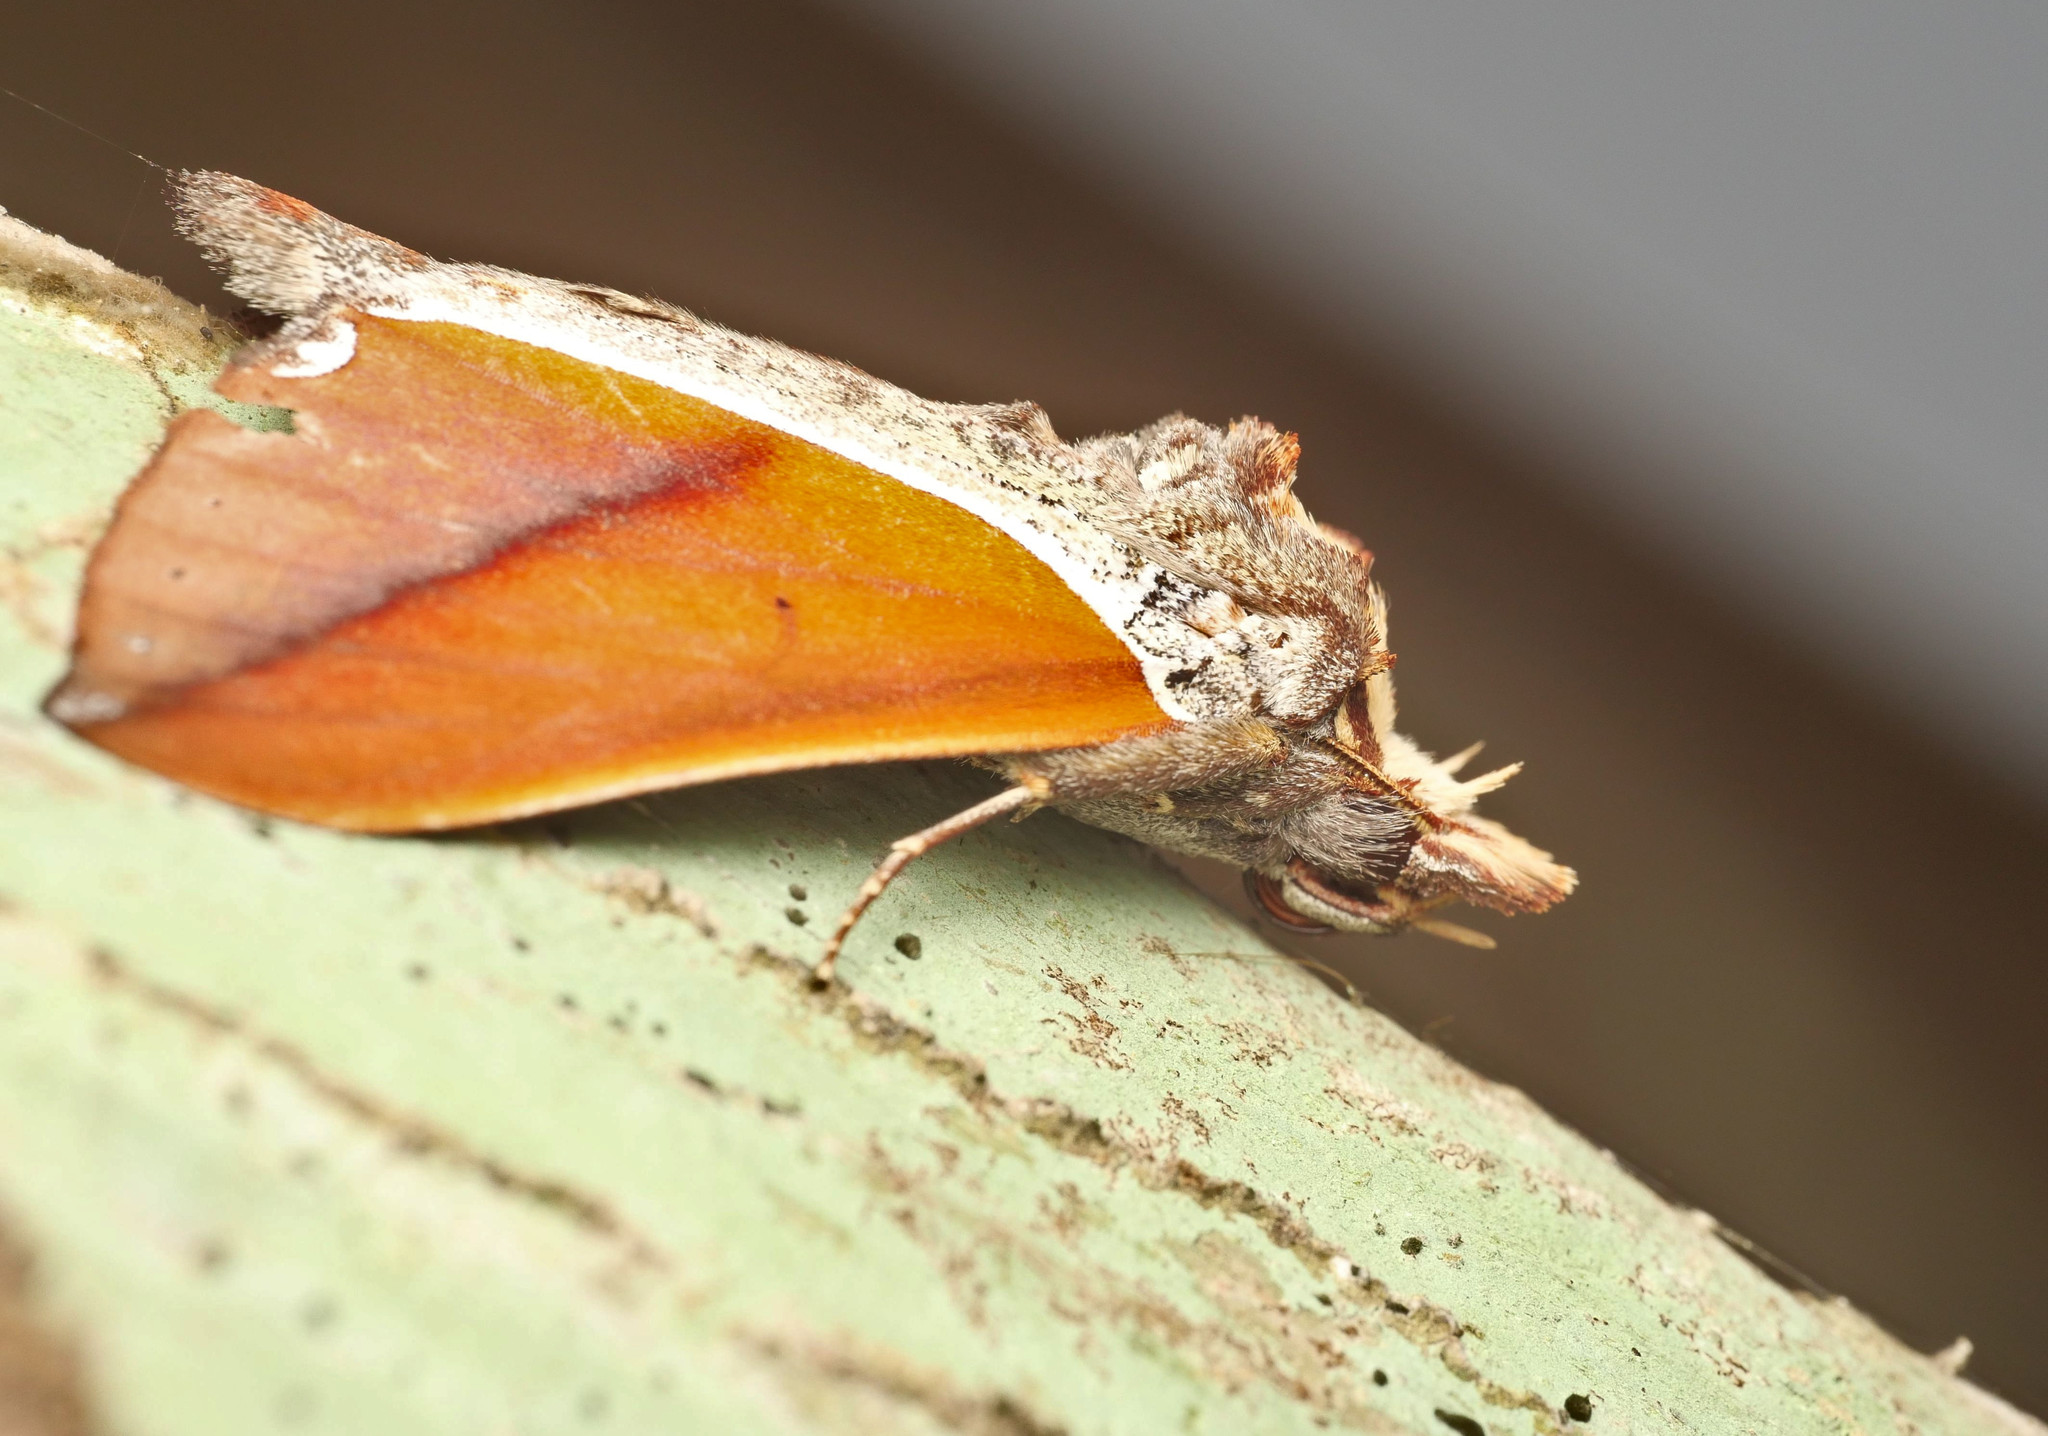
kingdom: Animalia
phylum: Arthropoda
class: Insecta
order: Lepidoptera
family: Notodontidae
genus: Strophocerus
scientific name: Strophocerus thermesia
